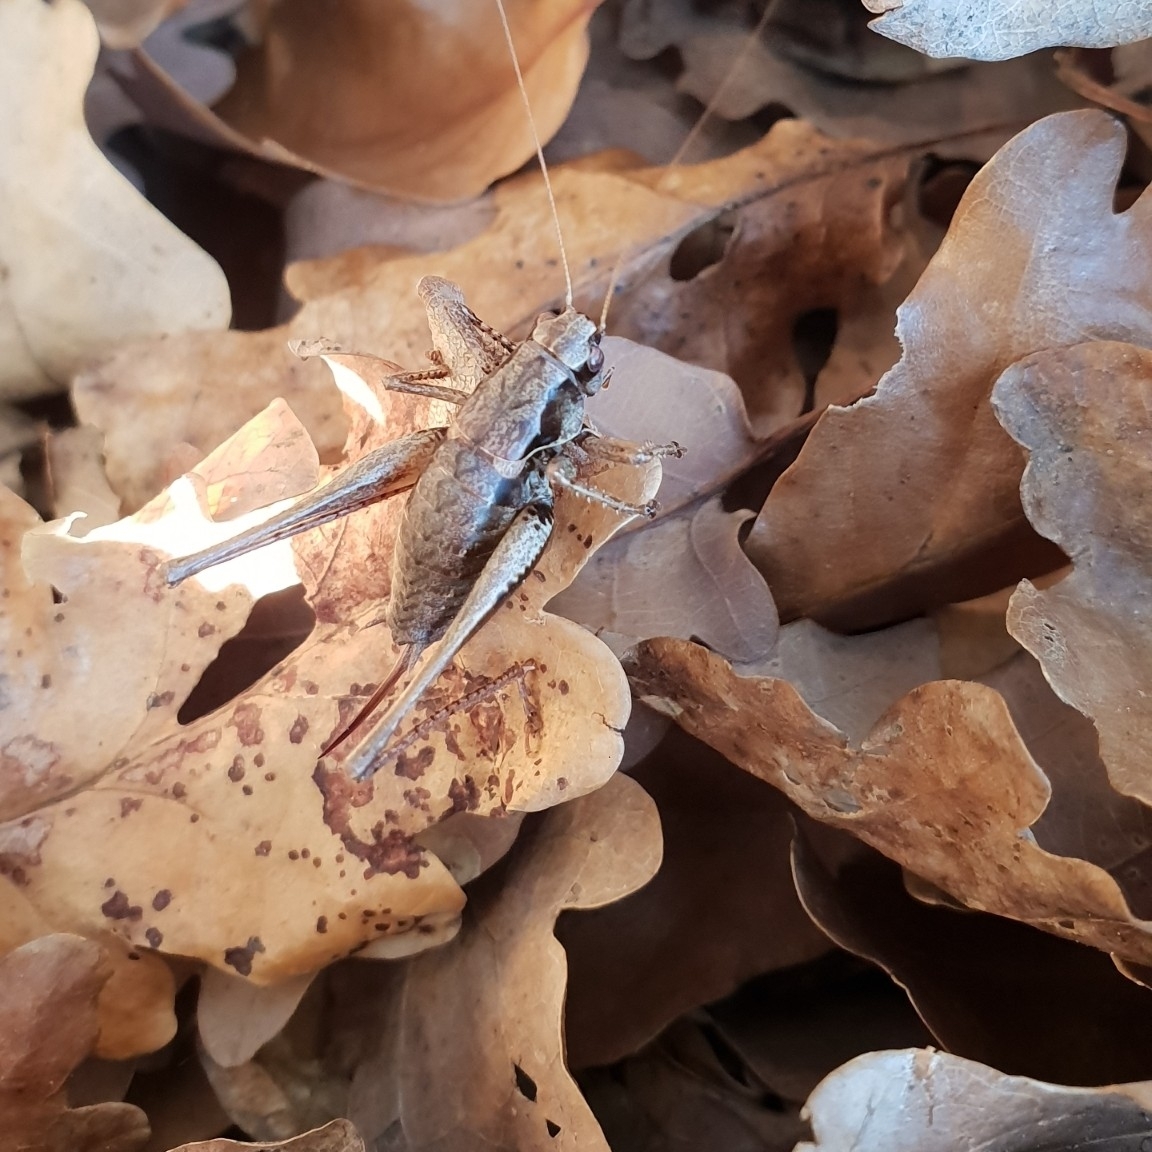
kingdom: Animalia
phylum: Arthropoda
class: Insecta
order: Orthoptera
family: Tettigoniidae
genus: Pholidoptera
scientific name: Pholidoptera griseoaptera
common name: Dark bush-cricket
